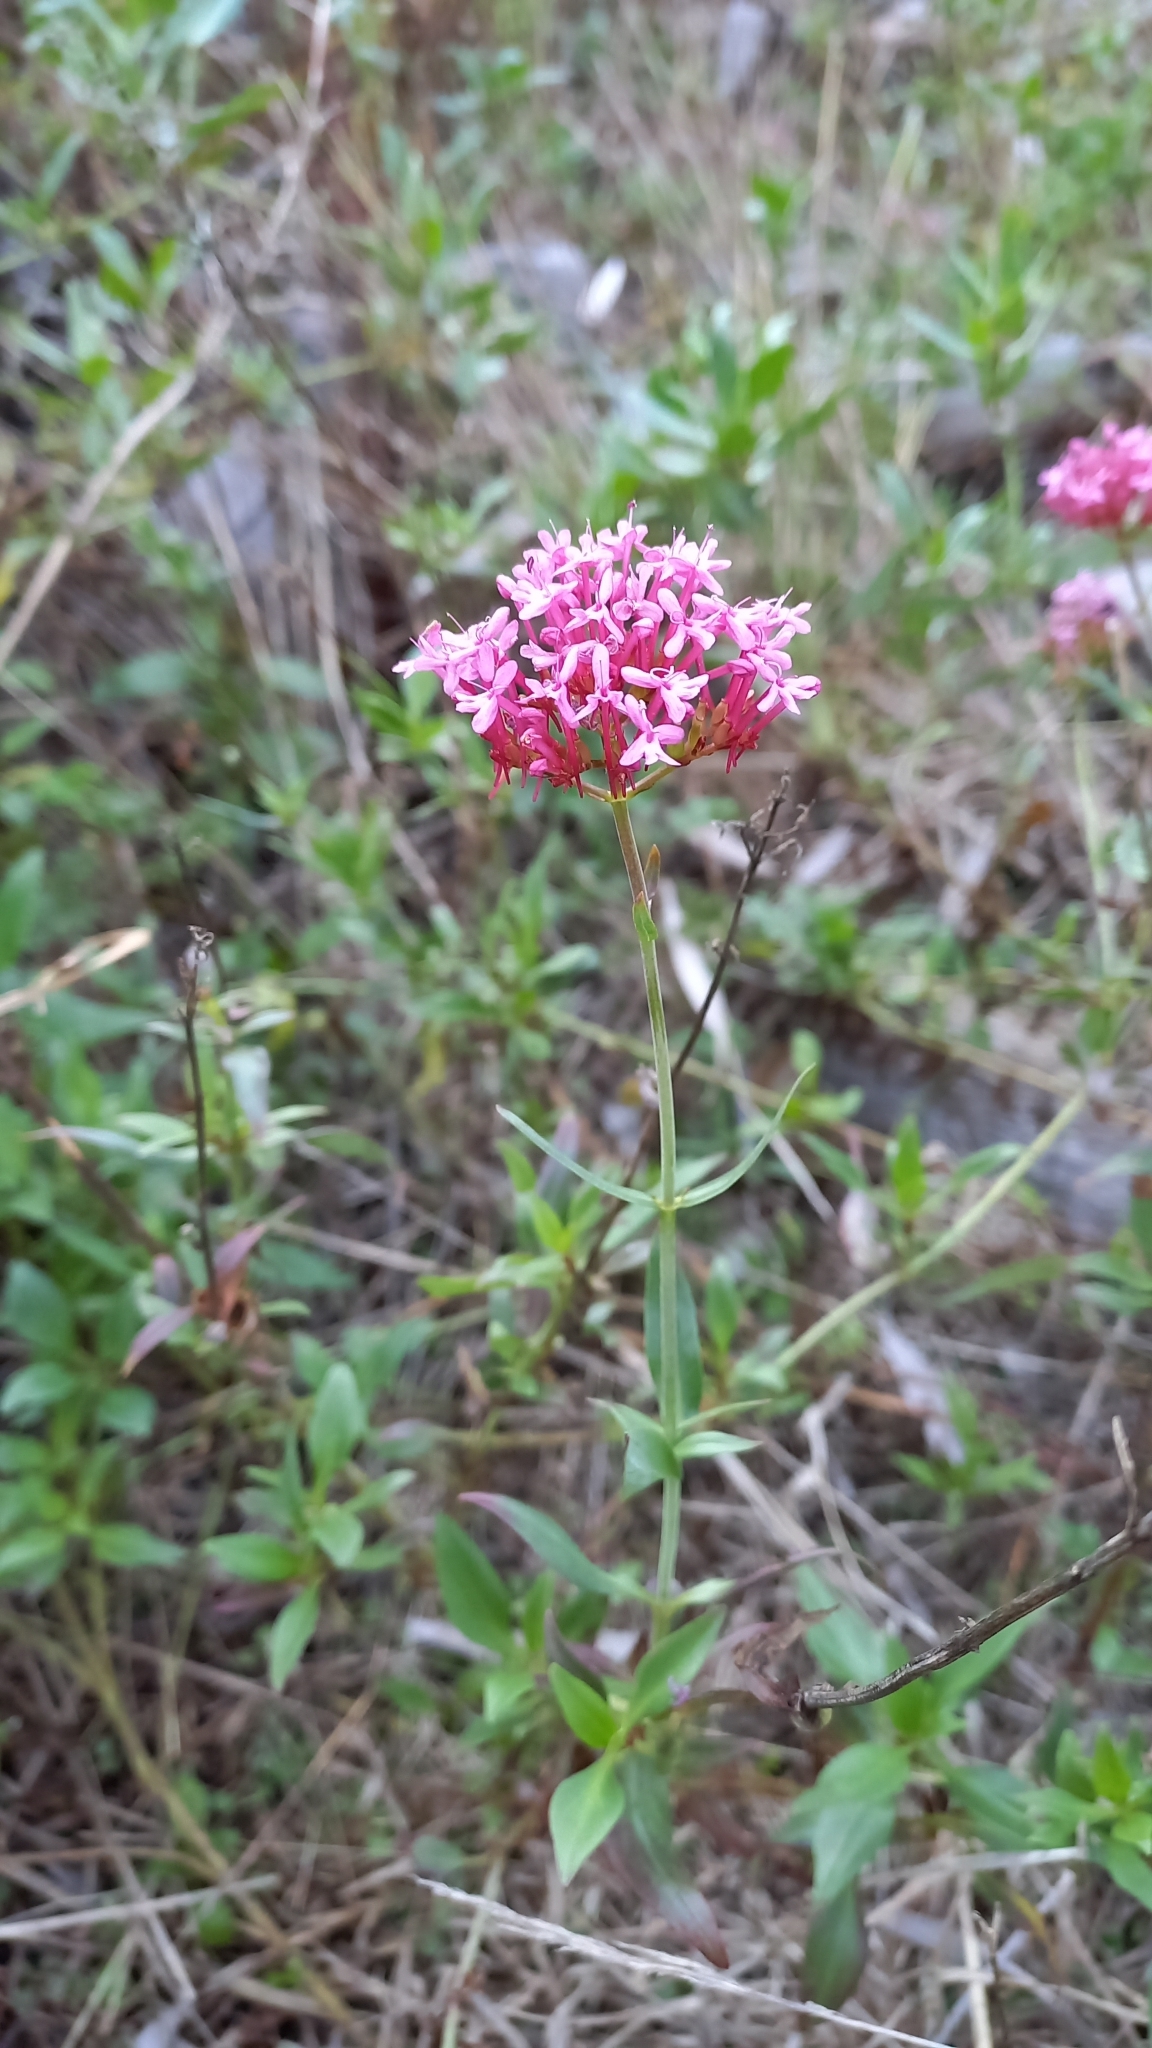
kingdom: Plantae
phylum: Tracheophyta
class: Magnoliopsida
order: Dipsacales
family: Caprifoliaceae
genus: Centranthus
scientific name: Centranthus ruber
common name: Red valerian
